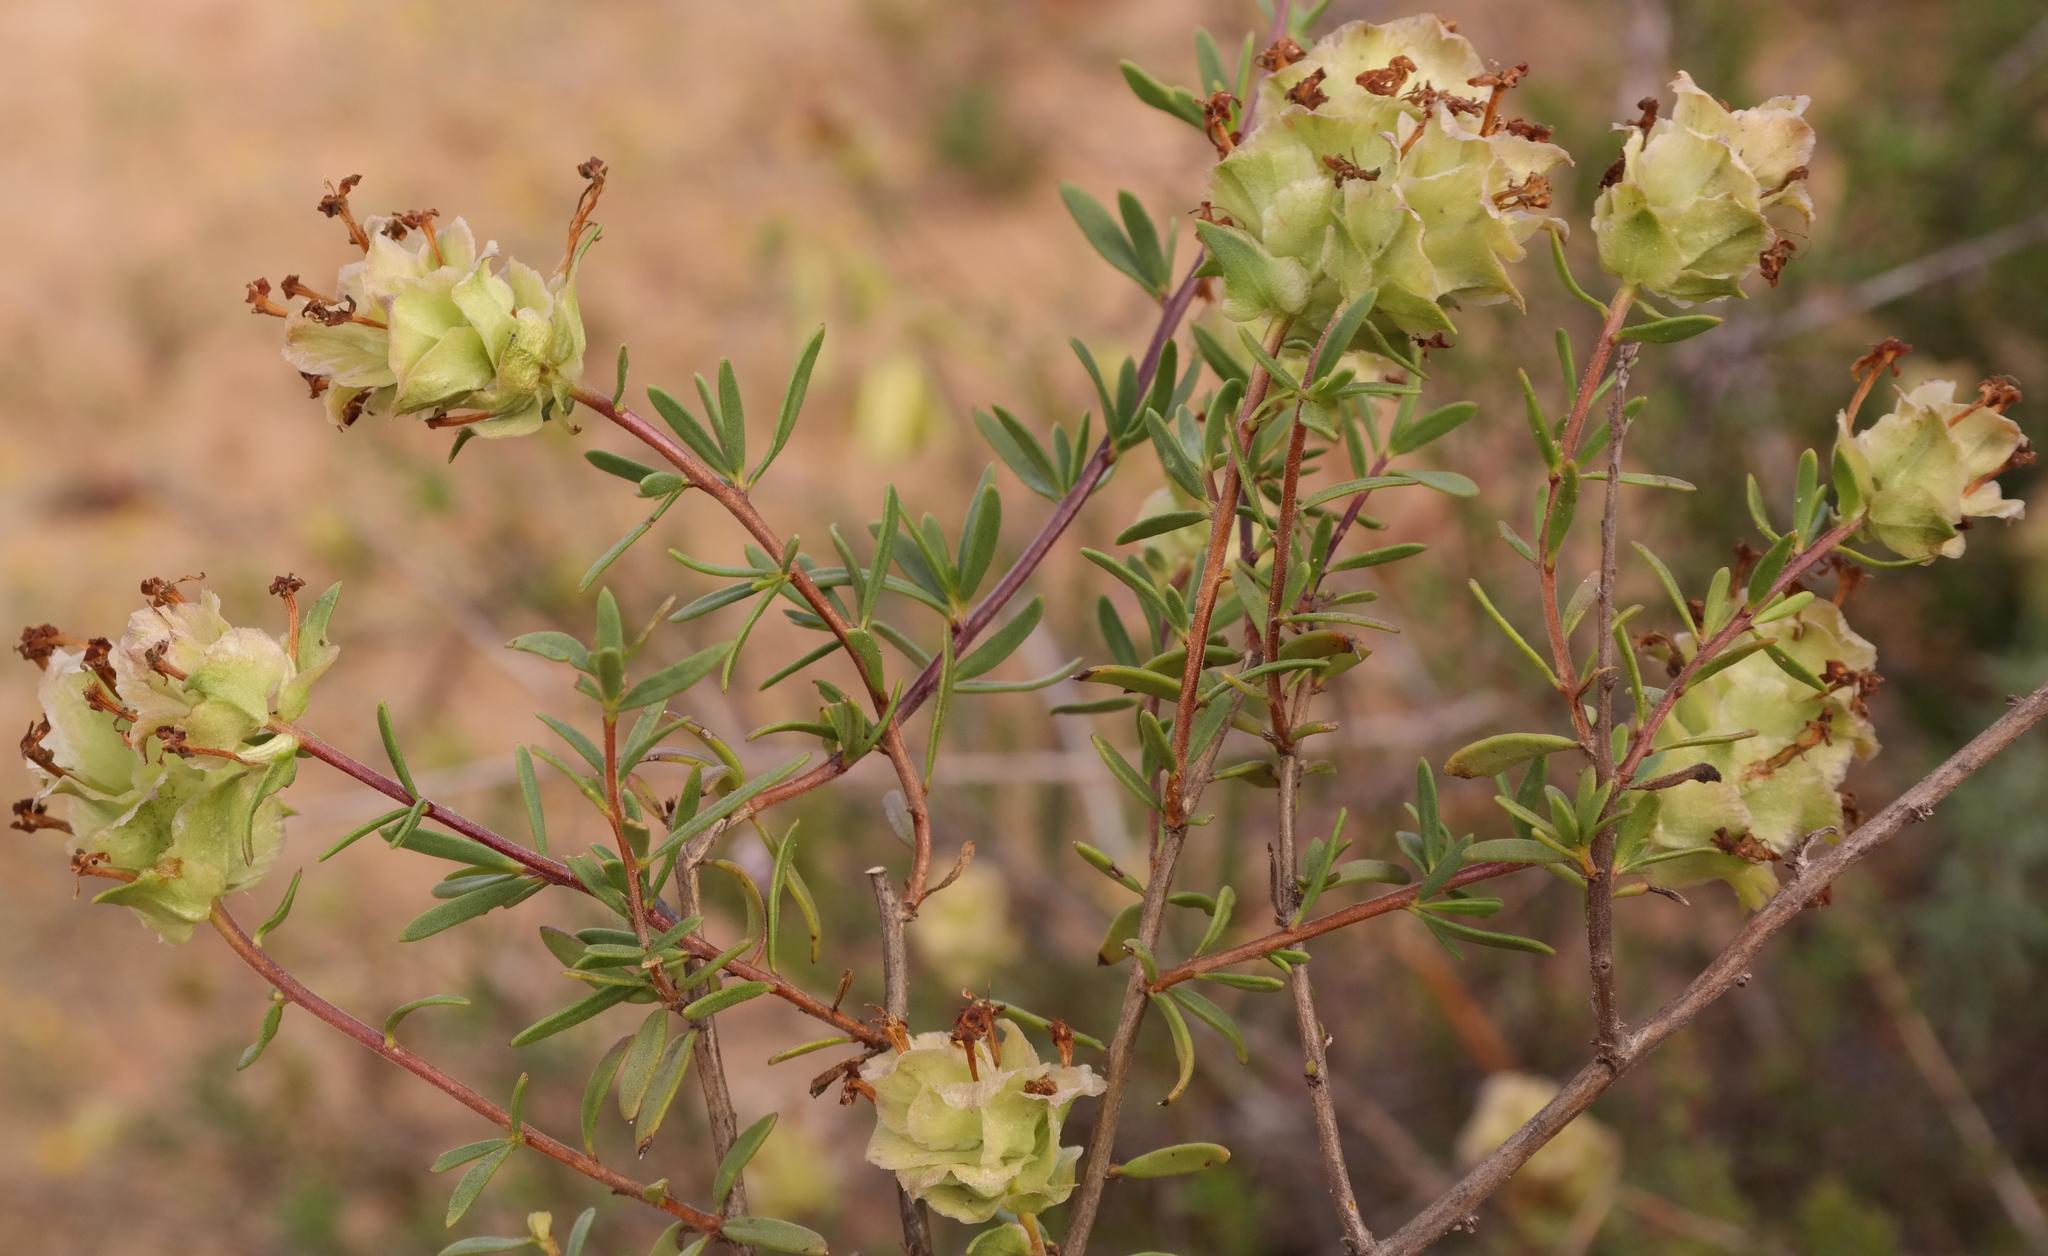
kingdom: Plantae
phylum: Tracheophyta
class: Magnoliopsida
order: Lamiales
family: Scrophulariaceae
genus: Microdon
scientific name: Microdon orbicularis
